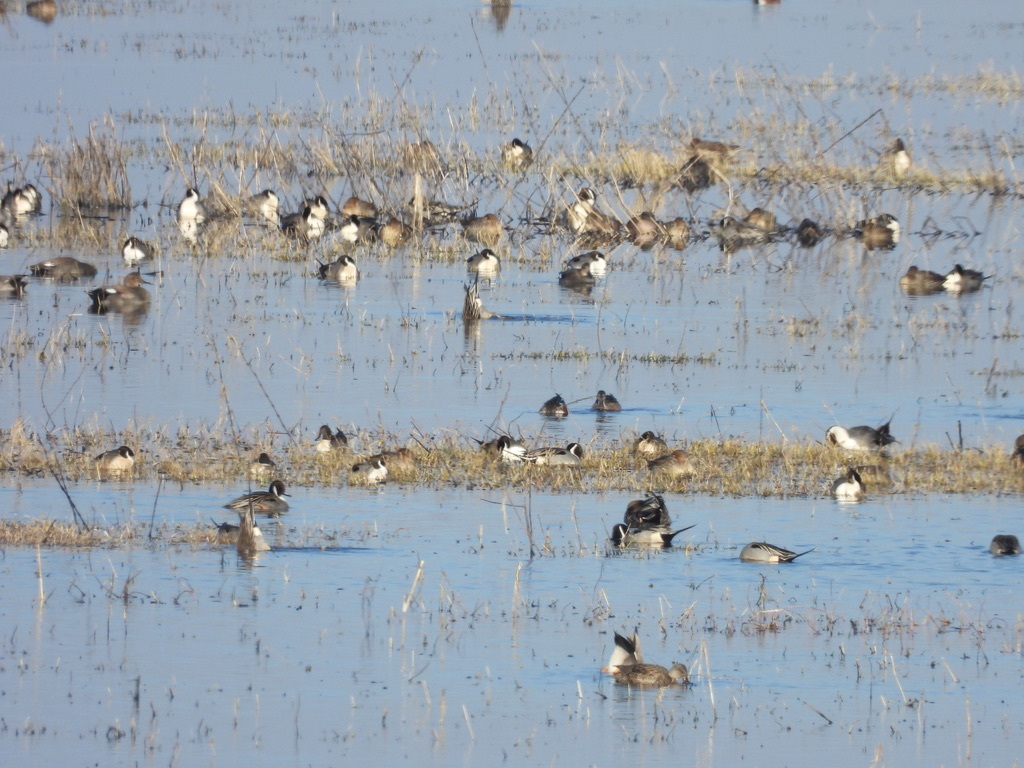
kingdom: Animalia
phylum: Chordata
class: Aves
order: Anseriformes
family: Anatidae
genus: Anas
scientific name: Anas acuta
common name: Northern pintail
